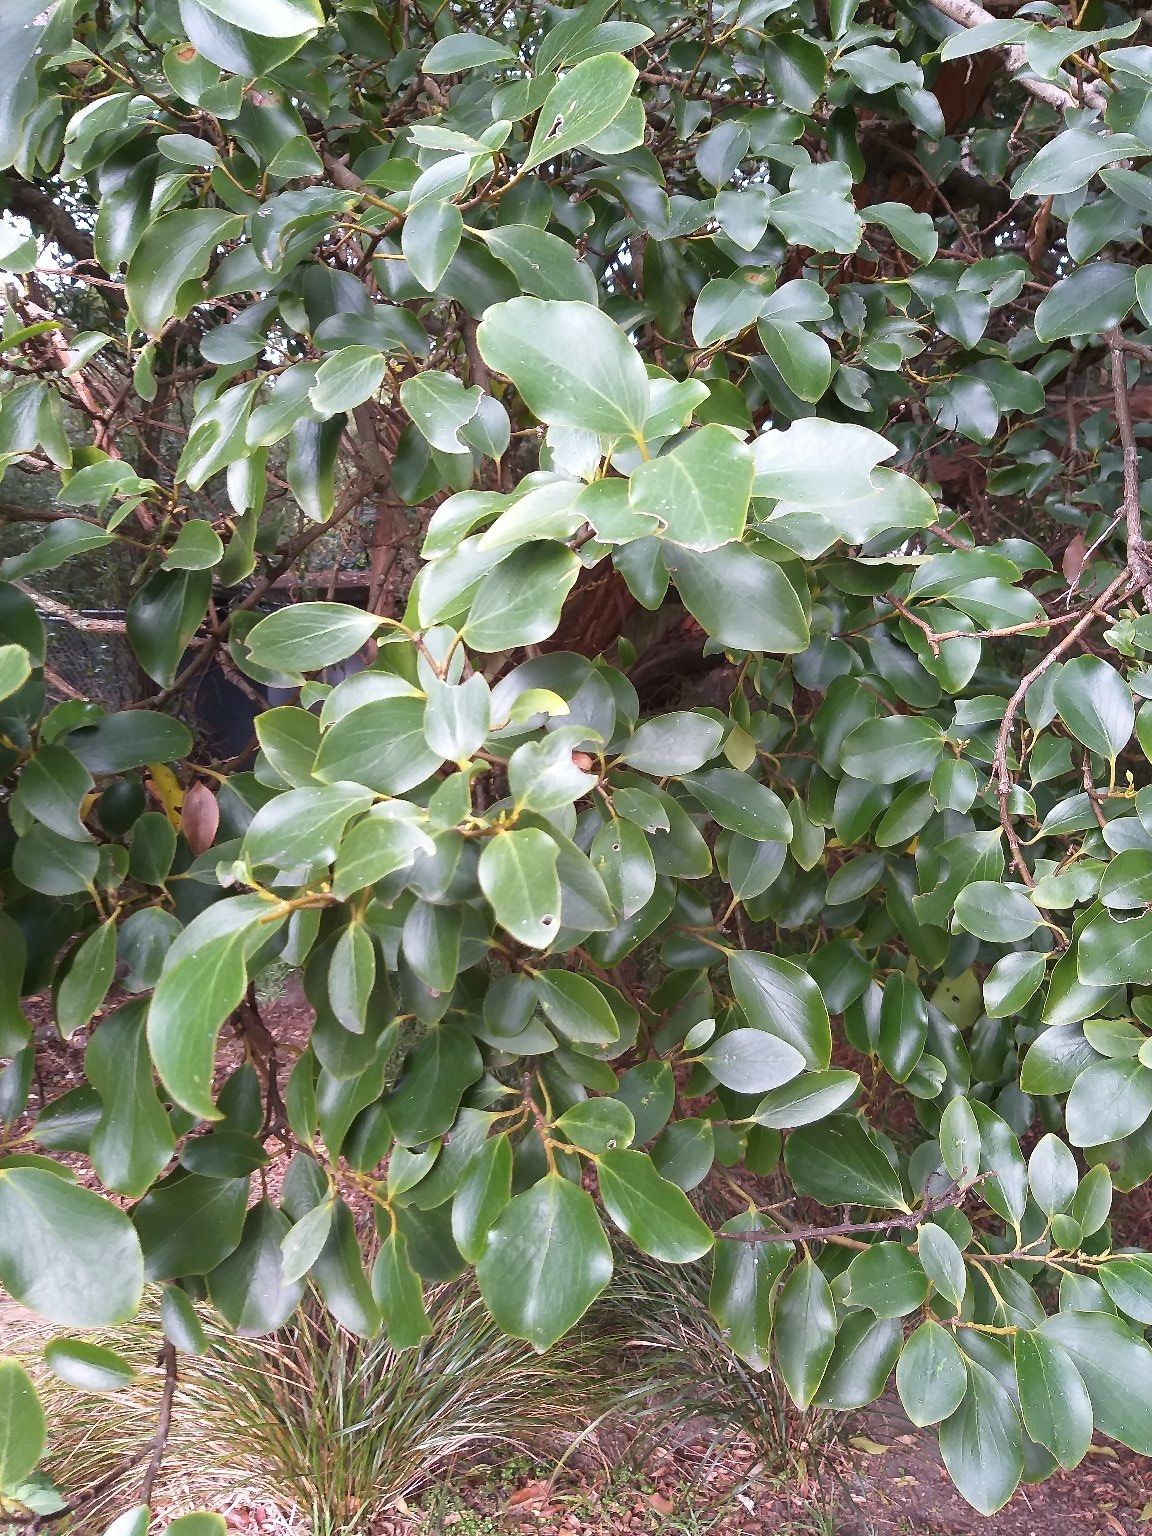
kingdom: Plantae
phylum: Tracheophyta
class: Magnoliopsida
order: Apiales
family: Griseliniaceae
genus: Griselinia
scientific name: Griselinia littoralis
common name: New zealand broadleaf
